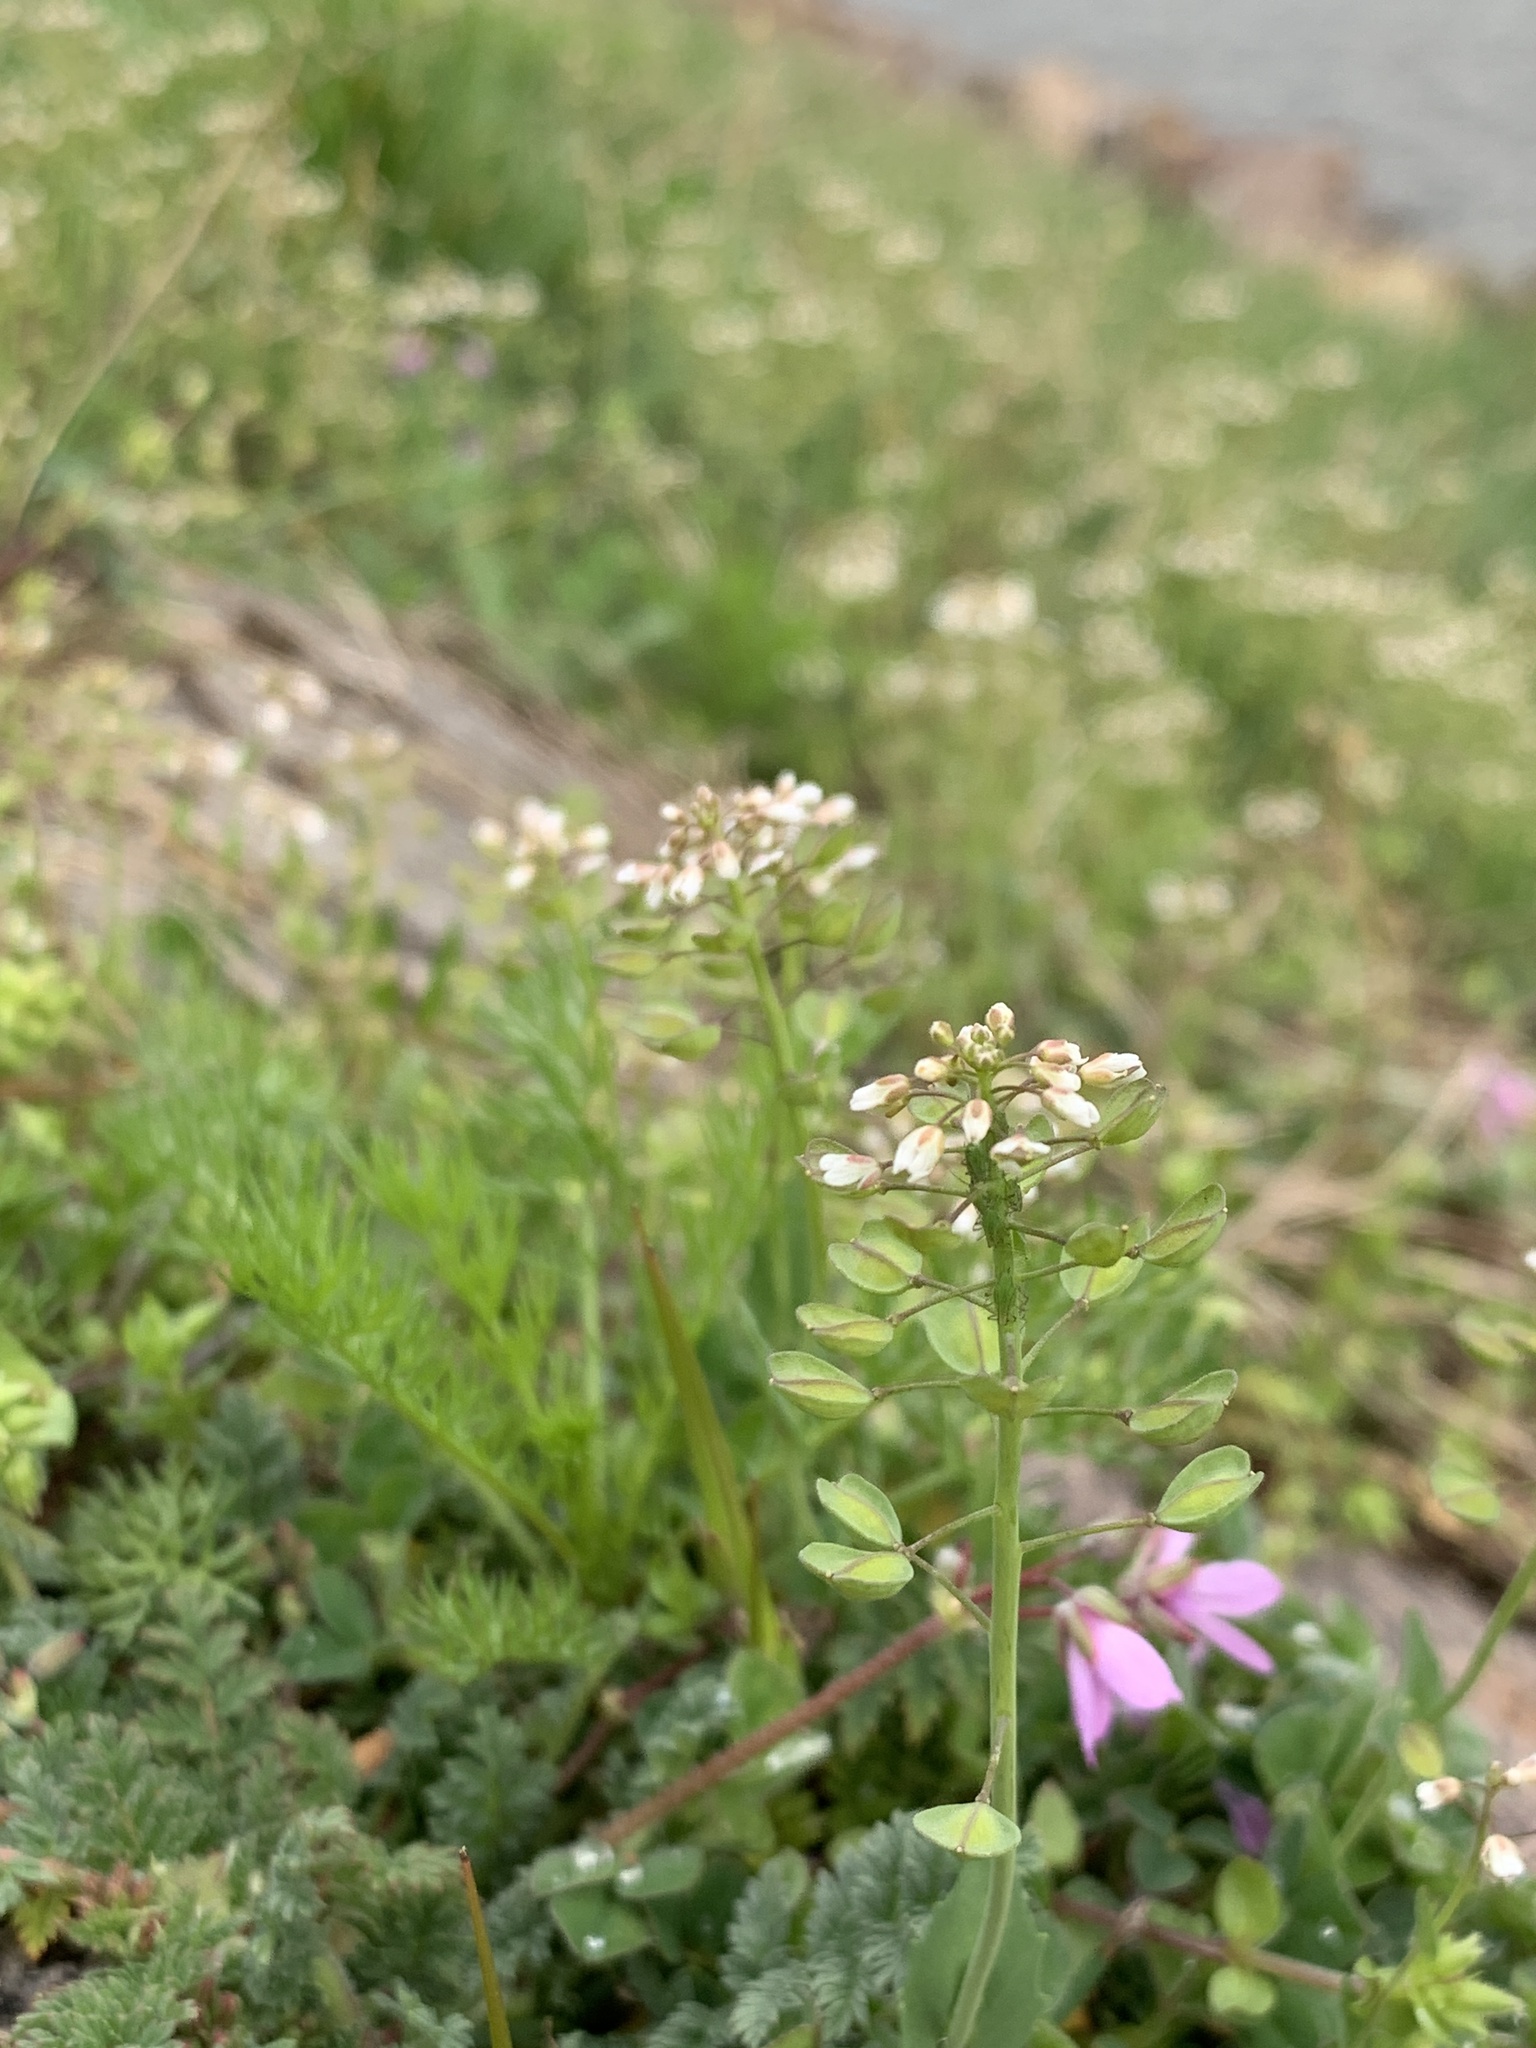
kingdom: Plantae
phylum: Tracheophyta
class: Magnoliopsida
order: Brassicales
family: Brassicaceae
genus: Noccaea
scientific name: Noccaea perfoliata
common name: Perfoliate pennycress
